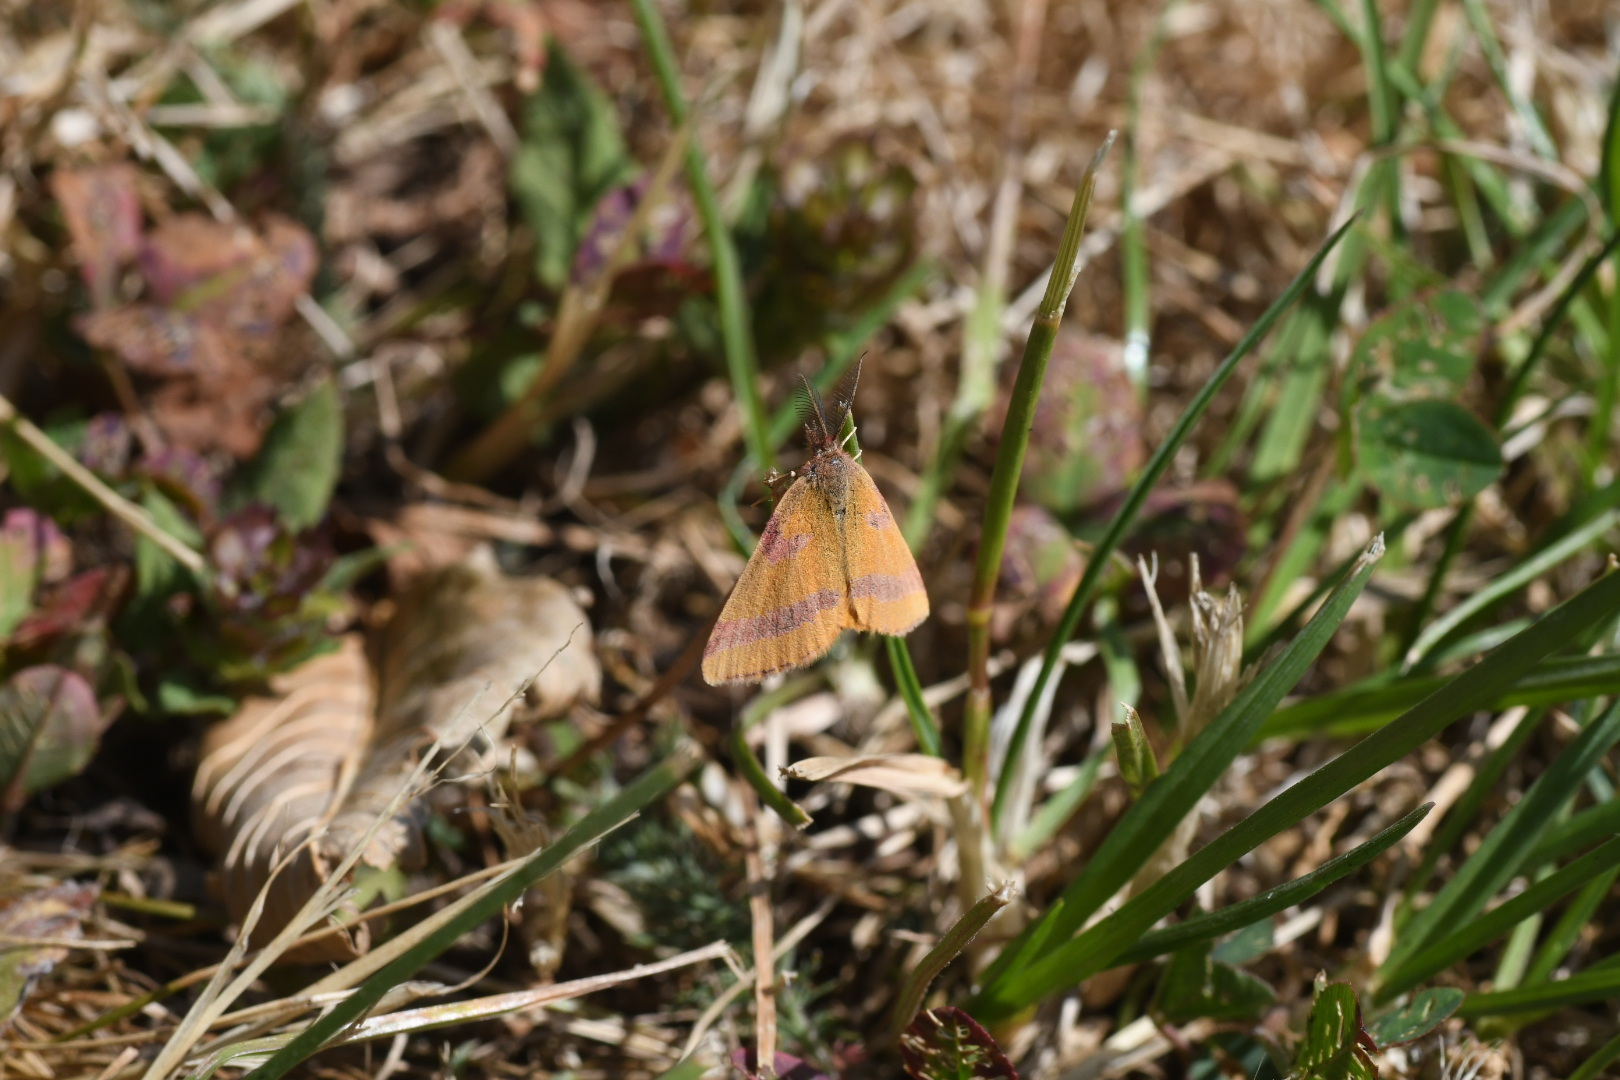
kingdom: Animalia
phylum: Arthropoda
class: Insecta
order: Lepidoptera
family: Geometridae
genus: Lythria
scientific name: Lythria cruentaria
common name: Purple-barred yellow
